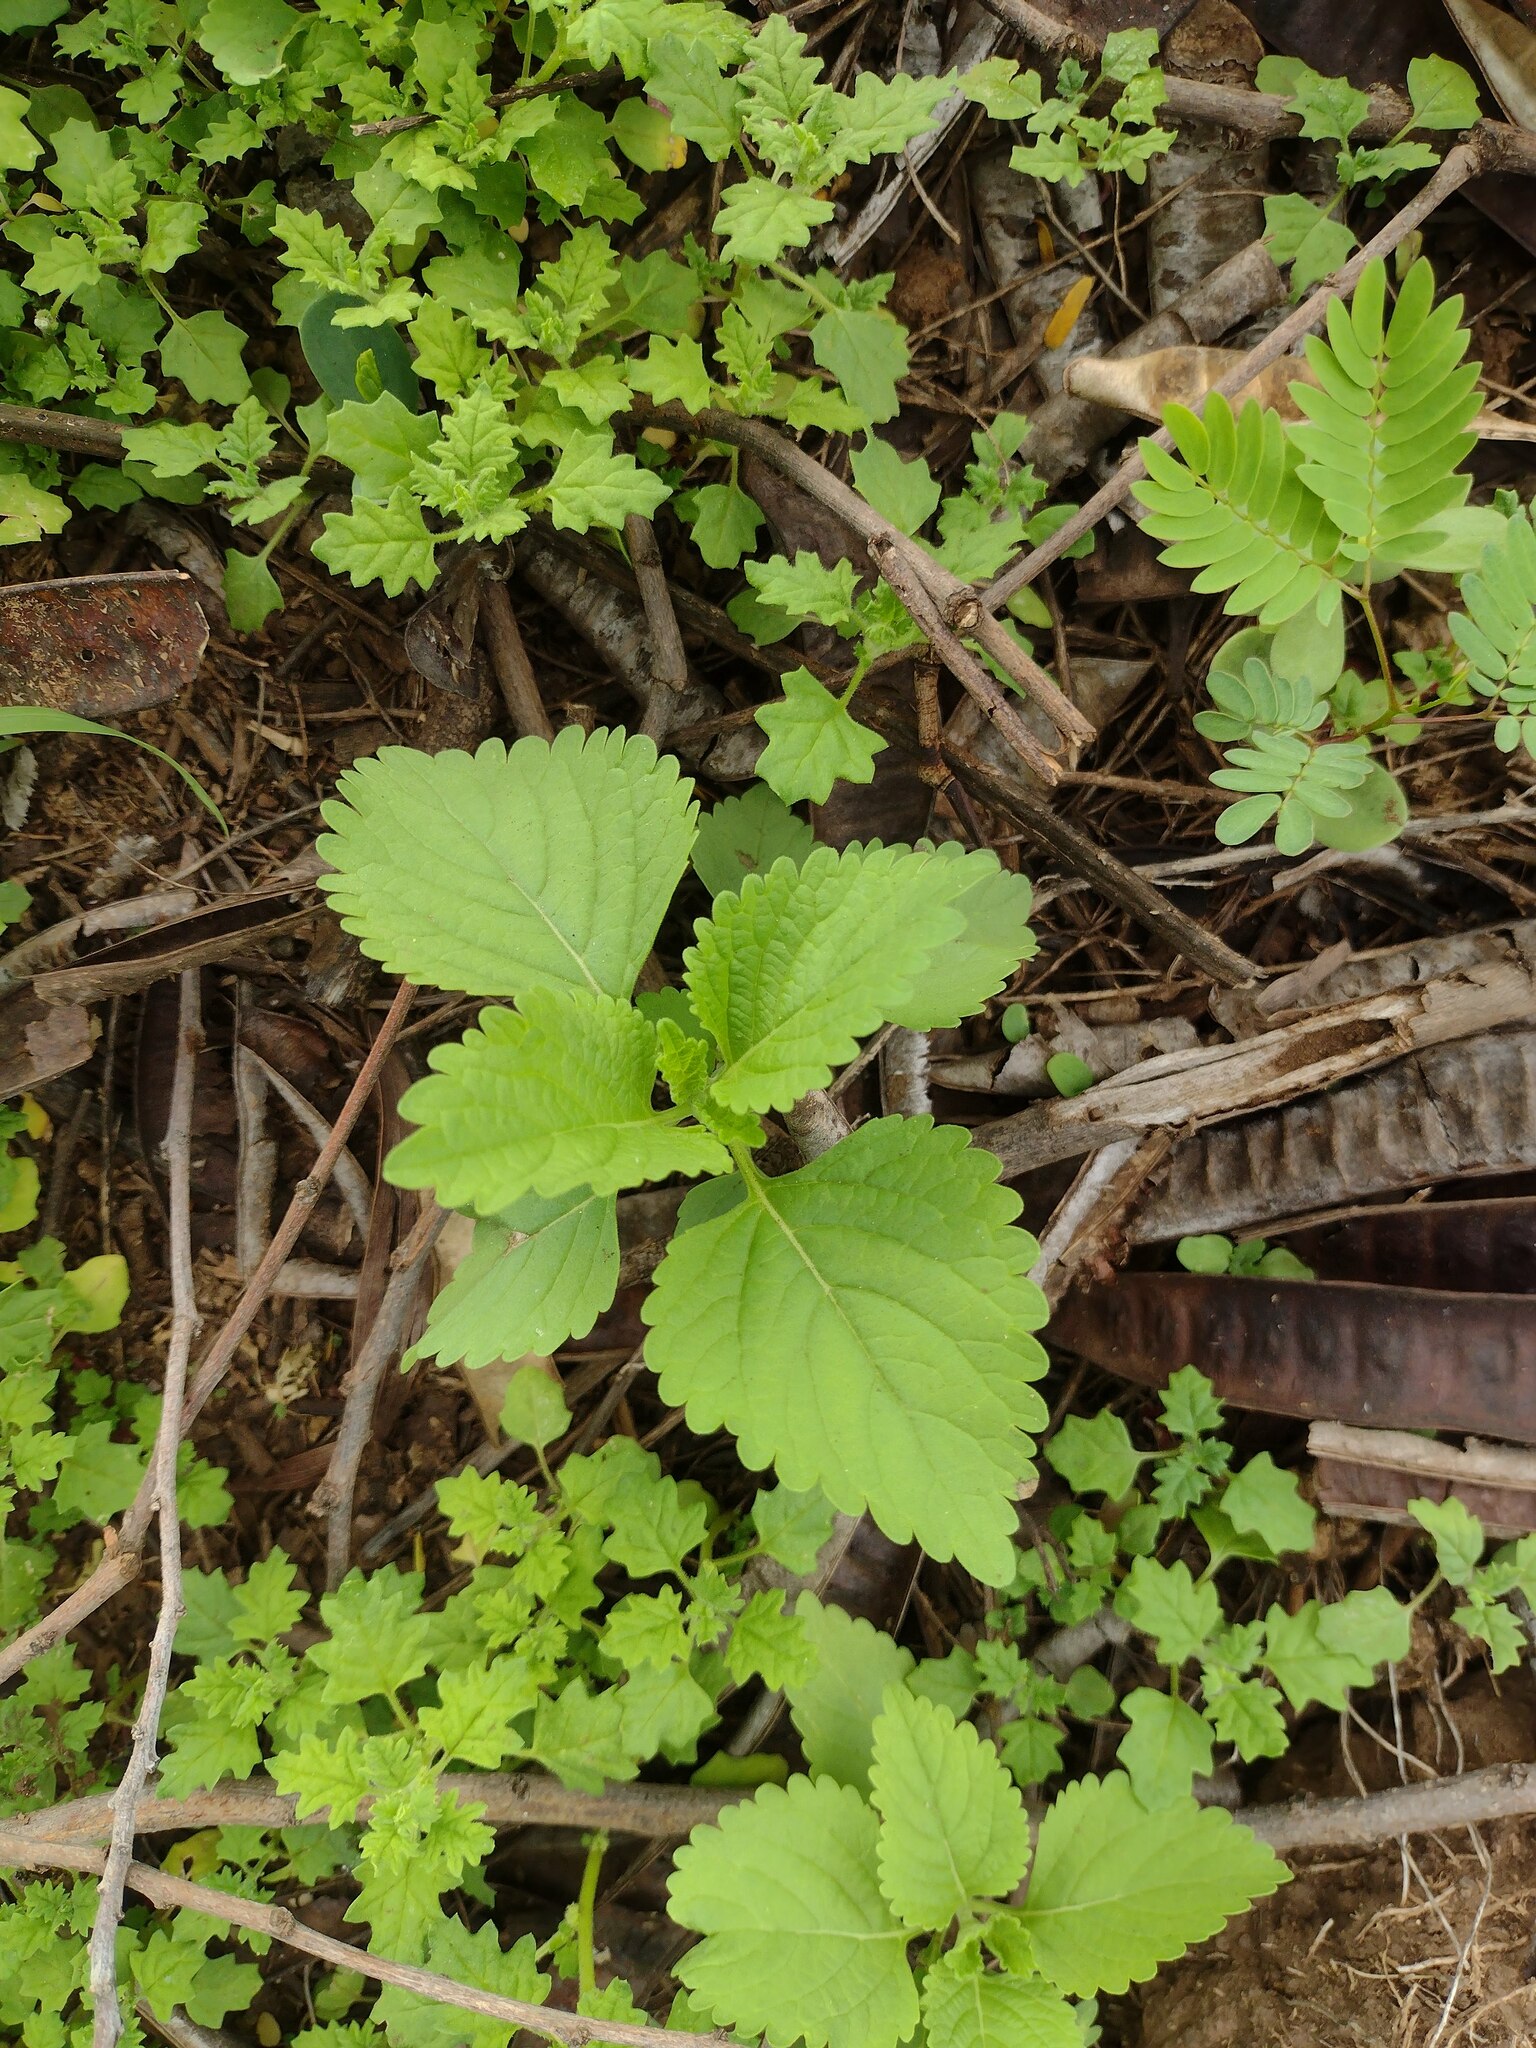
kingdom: Plantae
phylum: Tracheophyta
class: Magnoliopsida
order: Lamiales
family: Lamiaceae
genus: Leonotis
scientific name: Leonotis nepetifolia
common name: Christmas candlestick
